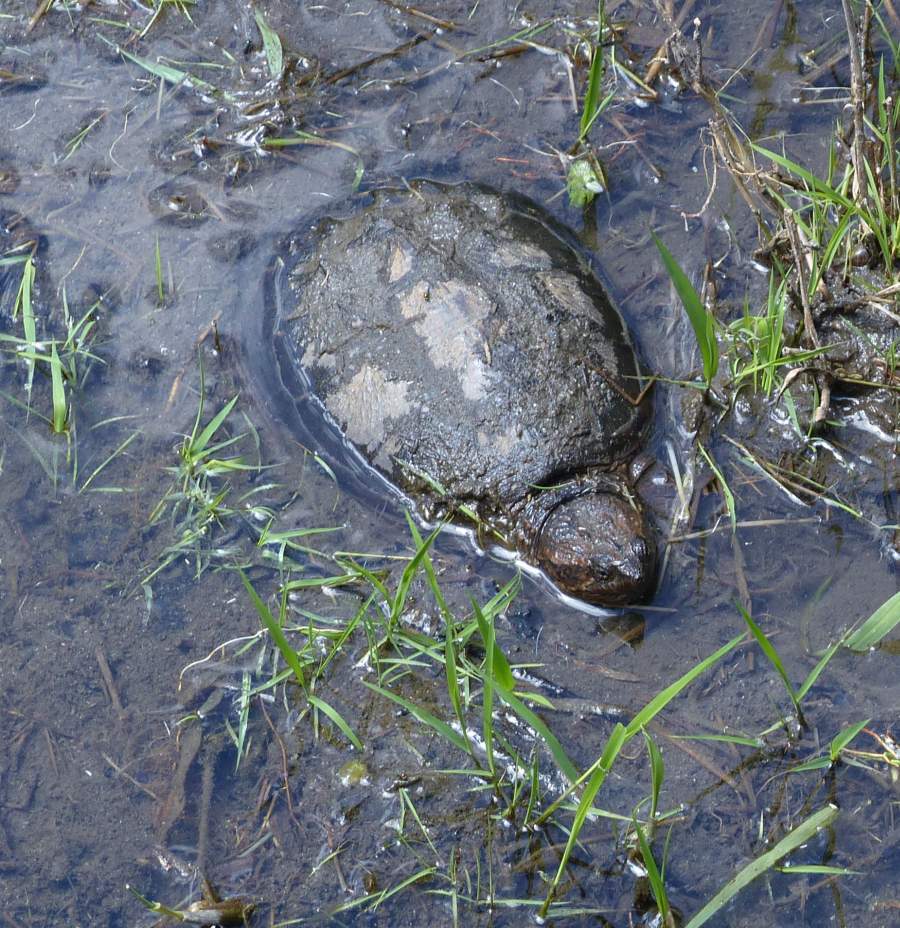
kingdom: Animalia
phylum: Chordata
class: Testudines
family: Chelydridae
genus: Chelydra
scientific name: Chelydra serpentina
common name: Common snapping turtle
